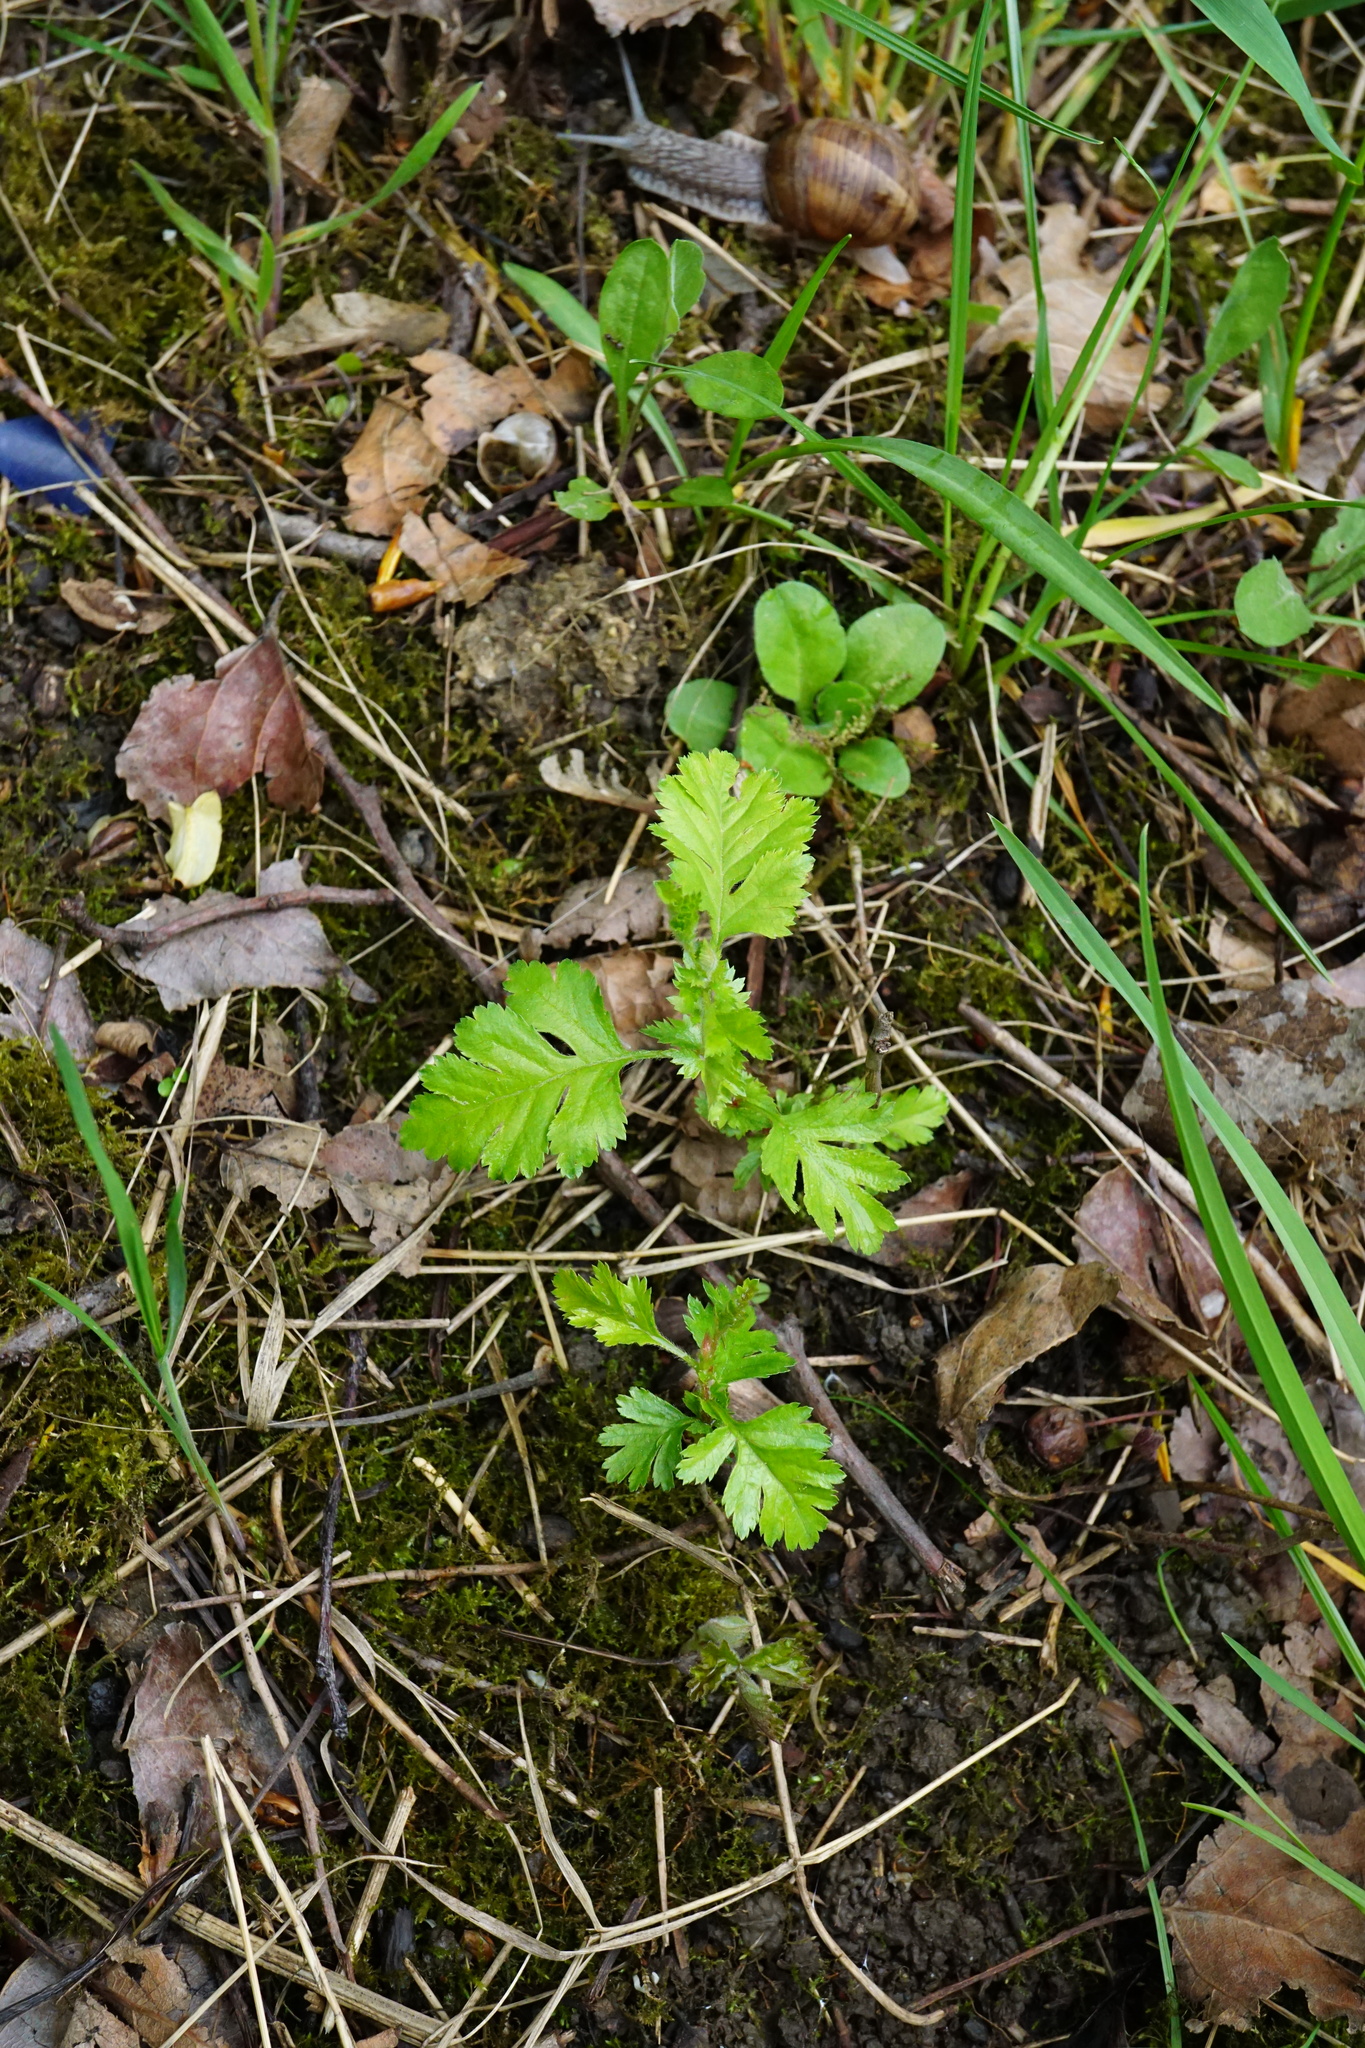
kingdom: Plantae
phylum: Tracheophyta
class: Magnoliopsida
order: Rosales
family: Rosaceae
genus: Crataegus
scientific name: Crataegus monogyna
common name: Hawthorn
